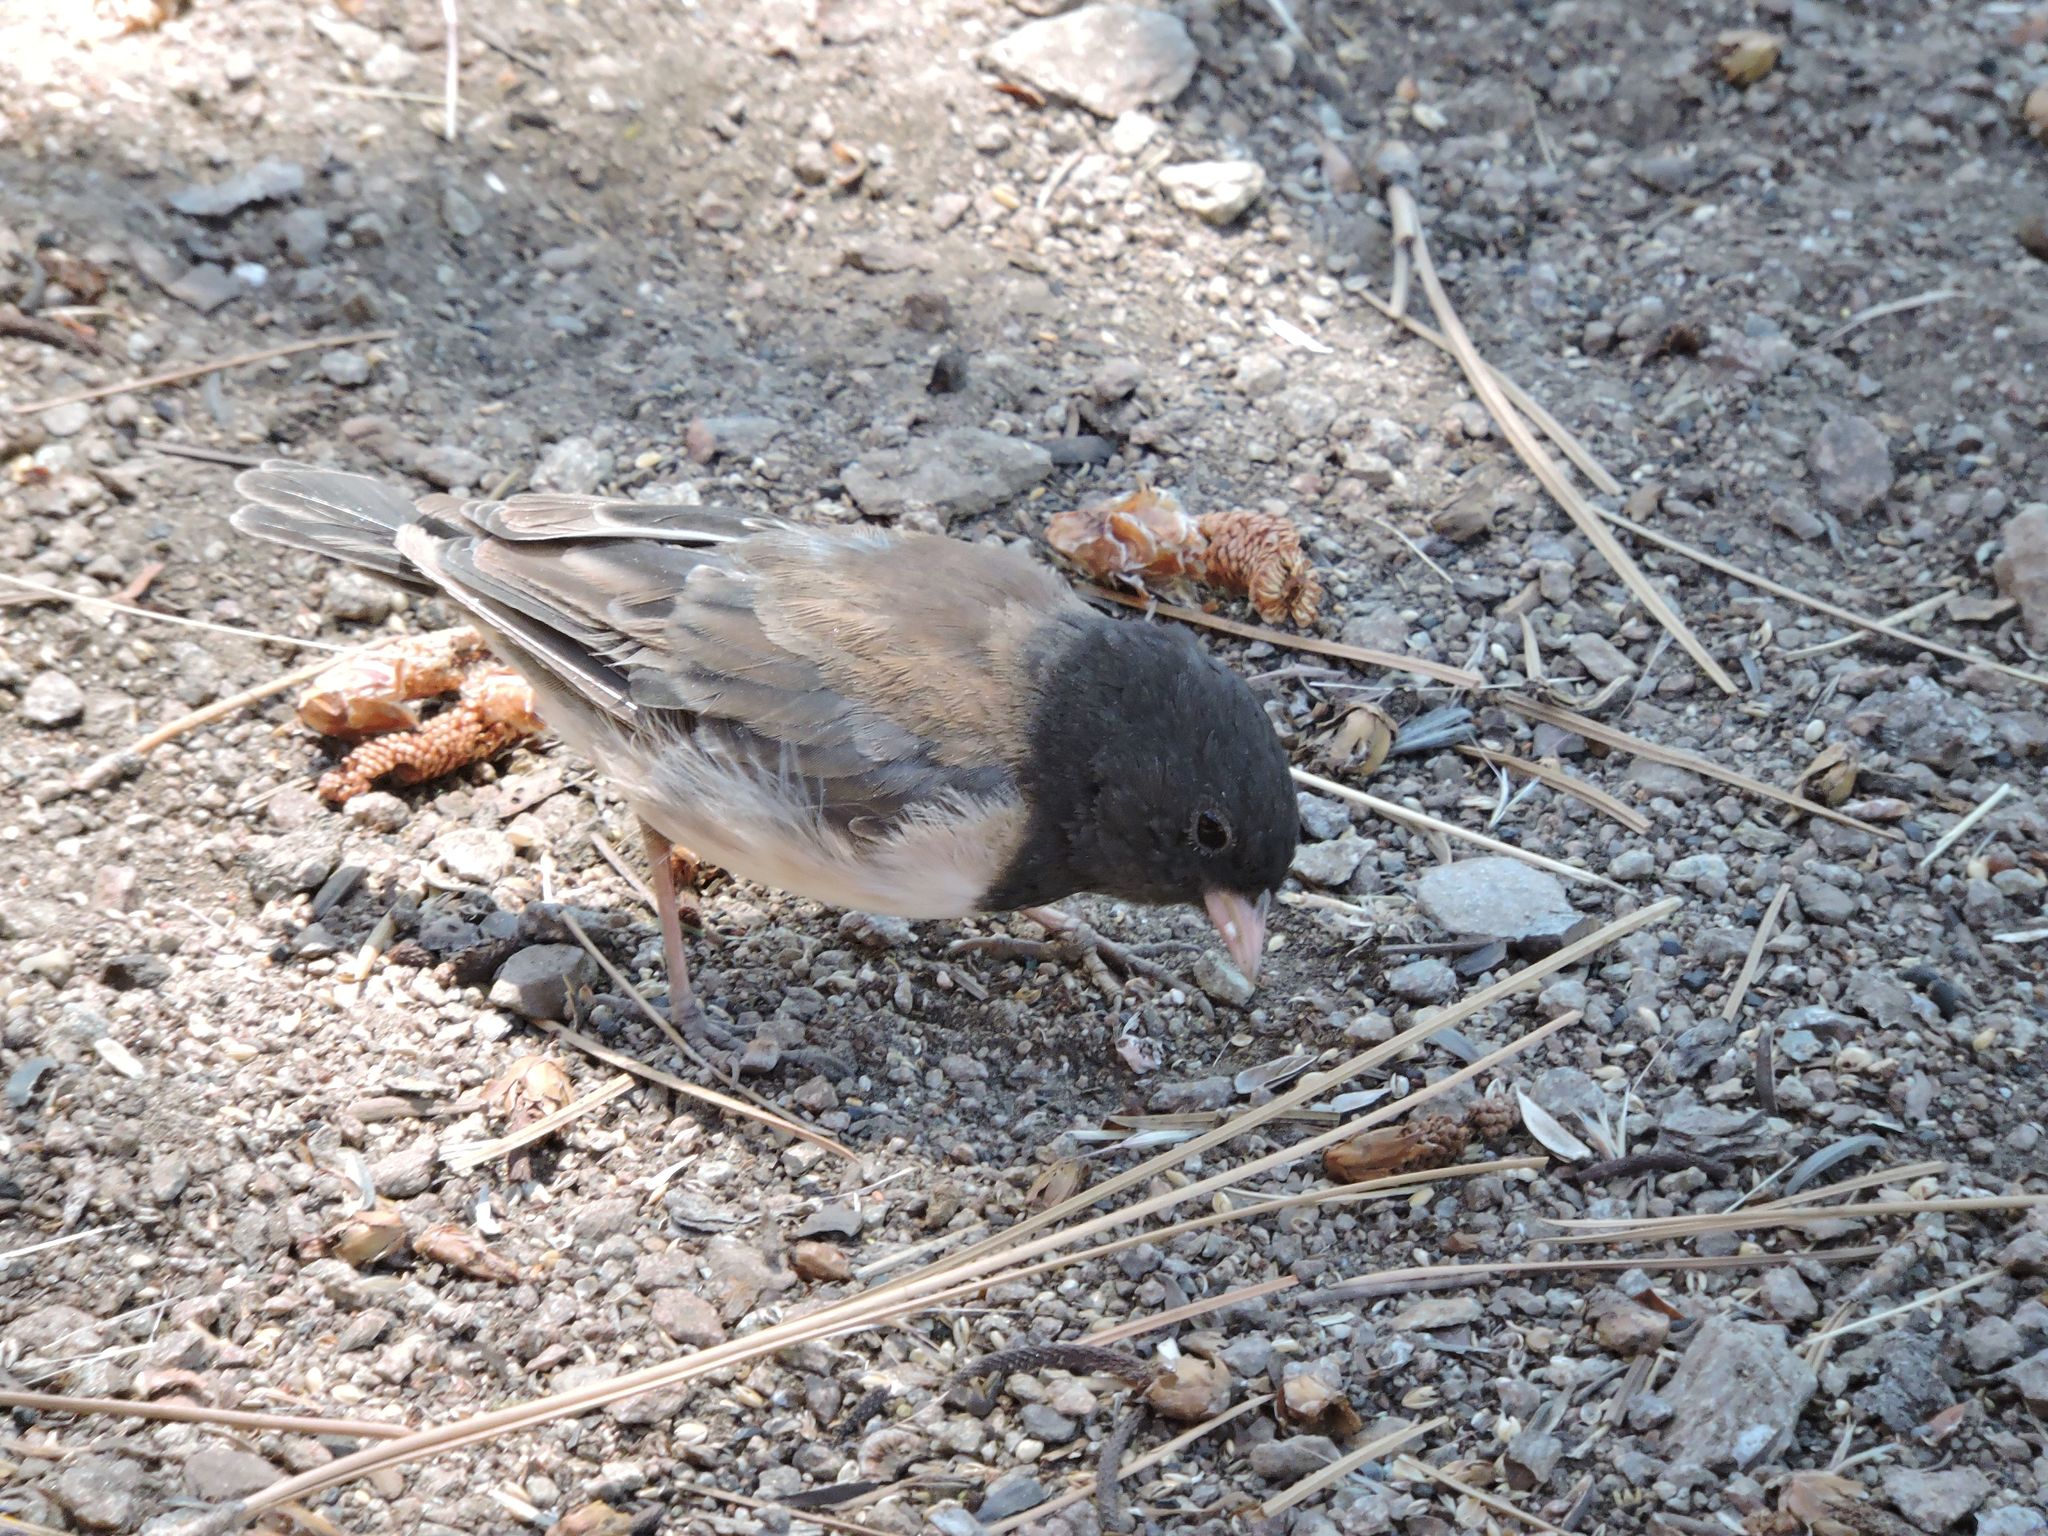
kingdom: Animalia
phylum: Chordata
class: Aves
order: Passeriformes
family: Passerellidae
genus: Junco
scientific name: Junco hyemalis
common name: Dark-eyed junco
